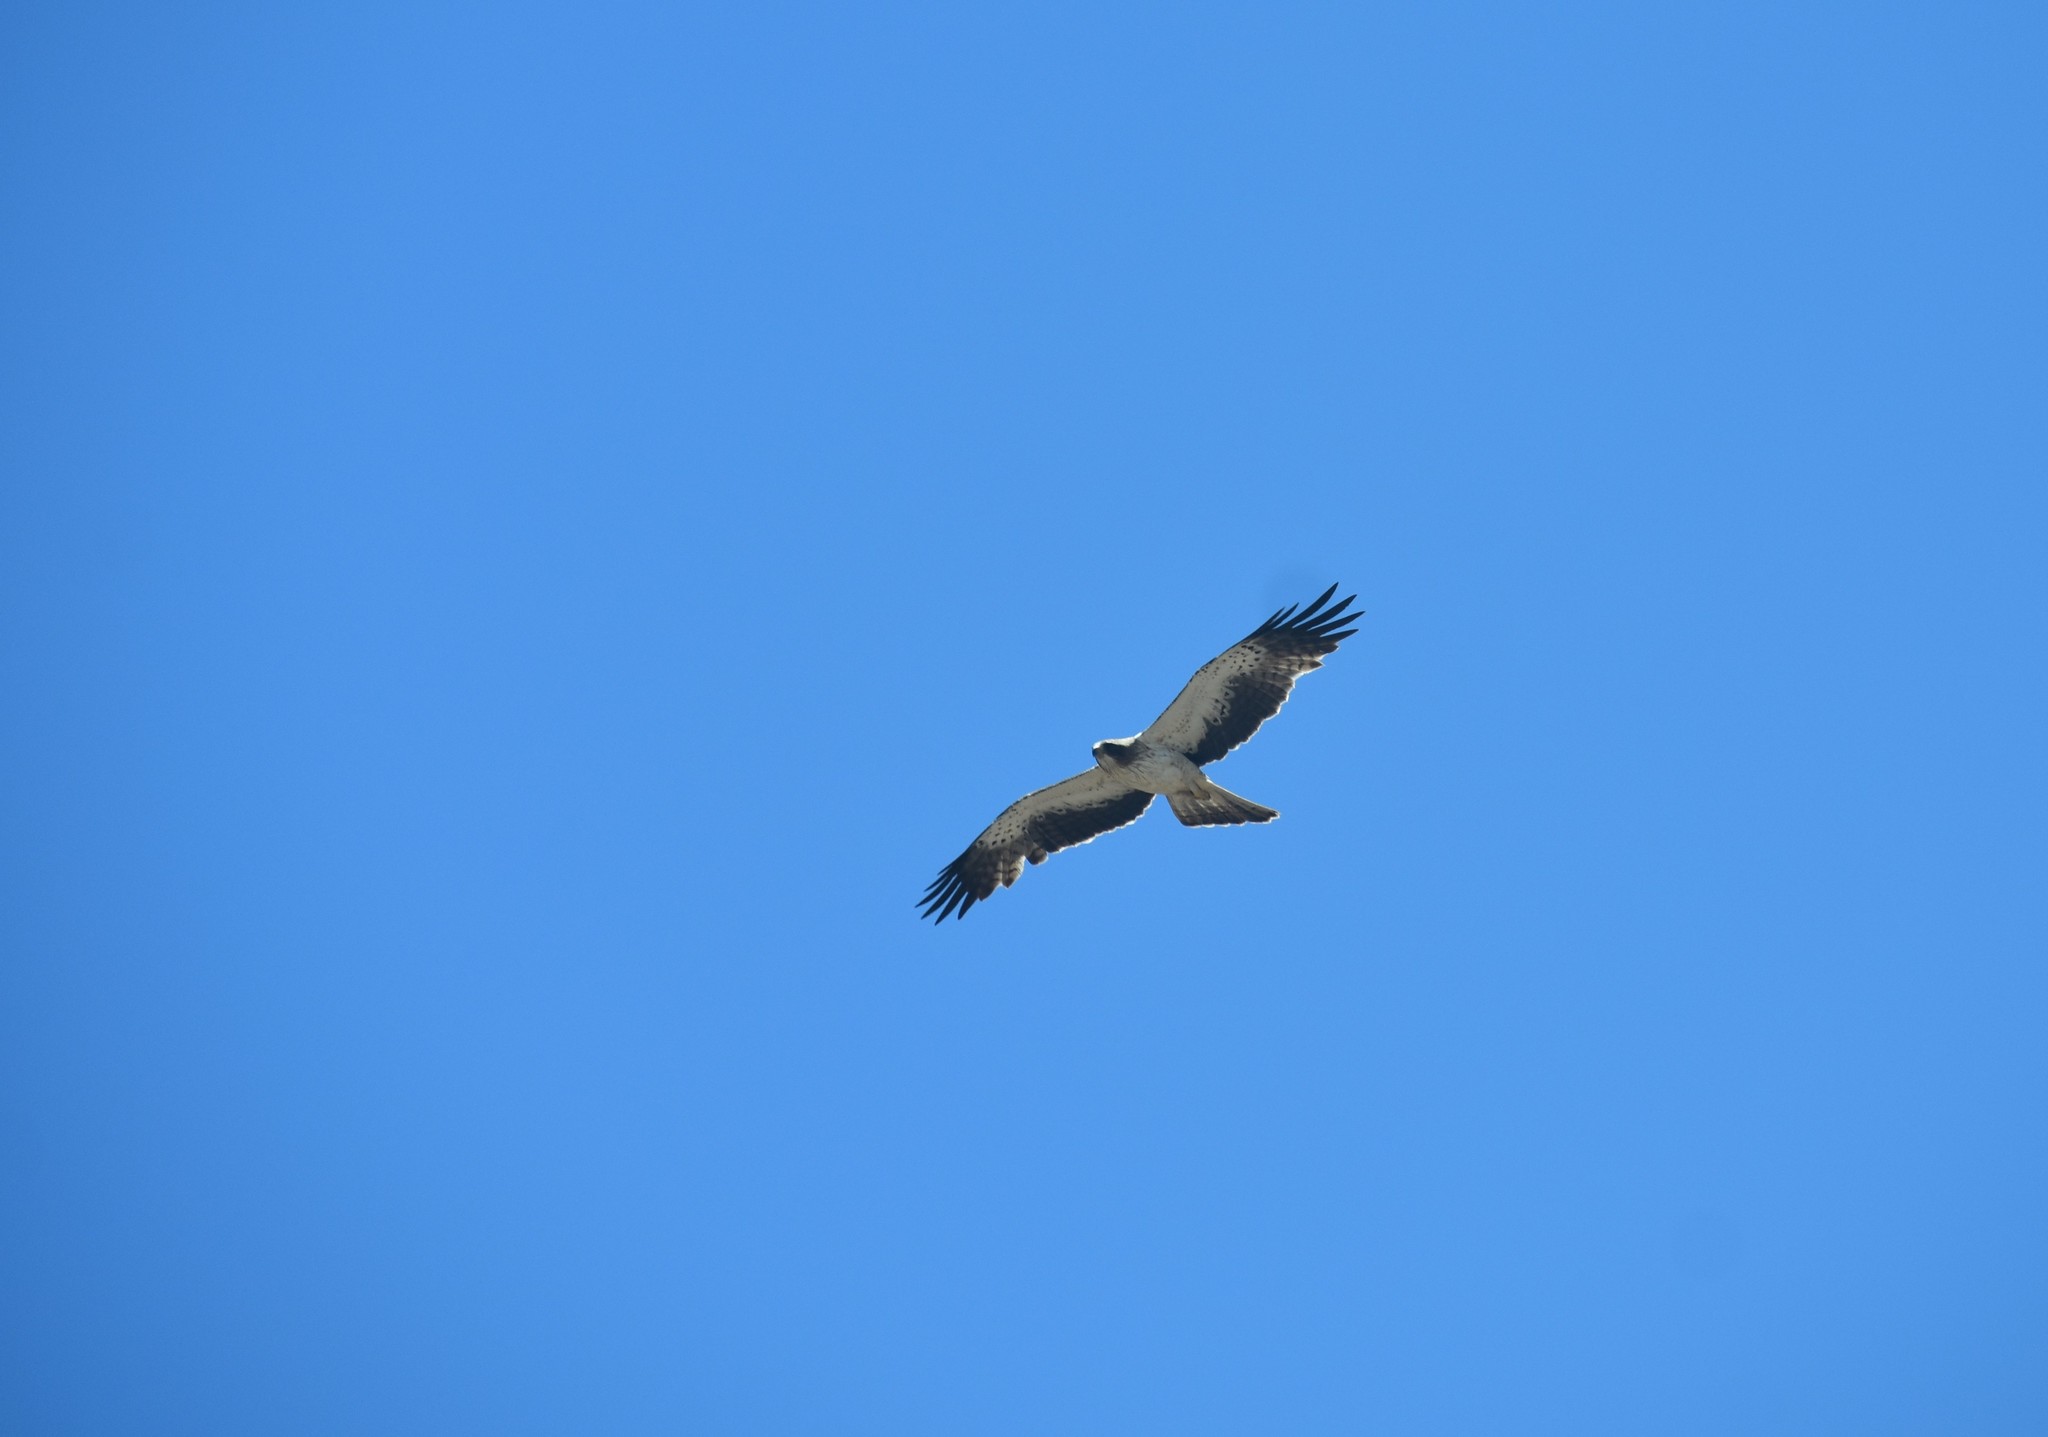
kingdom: Animalia
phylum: Chordata
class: Aves
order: Accipitriformes
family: Accipitridae
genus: Hieraaetus
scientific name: Hieraaetus pennatus
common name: Booted eagle
